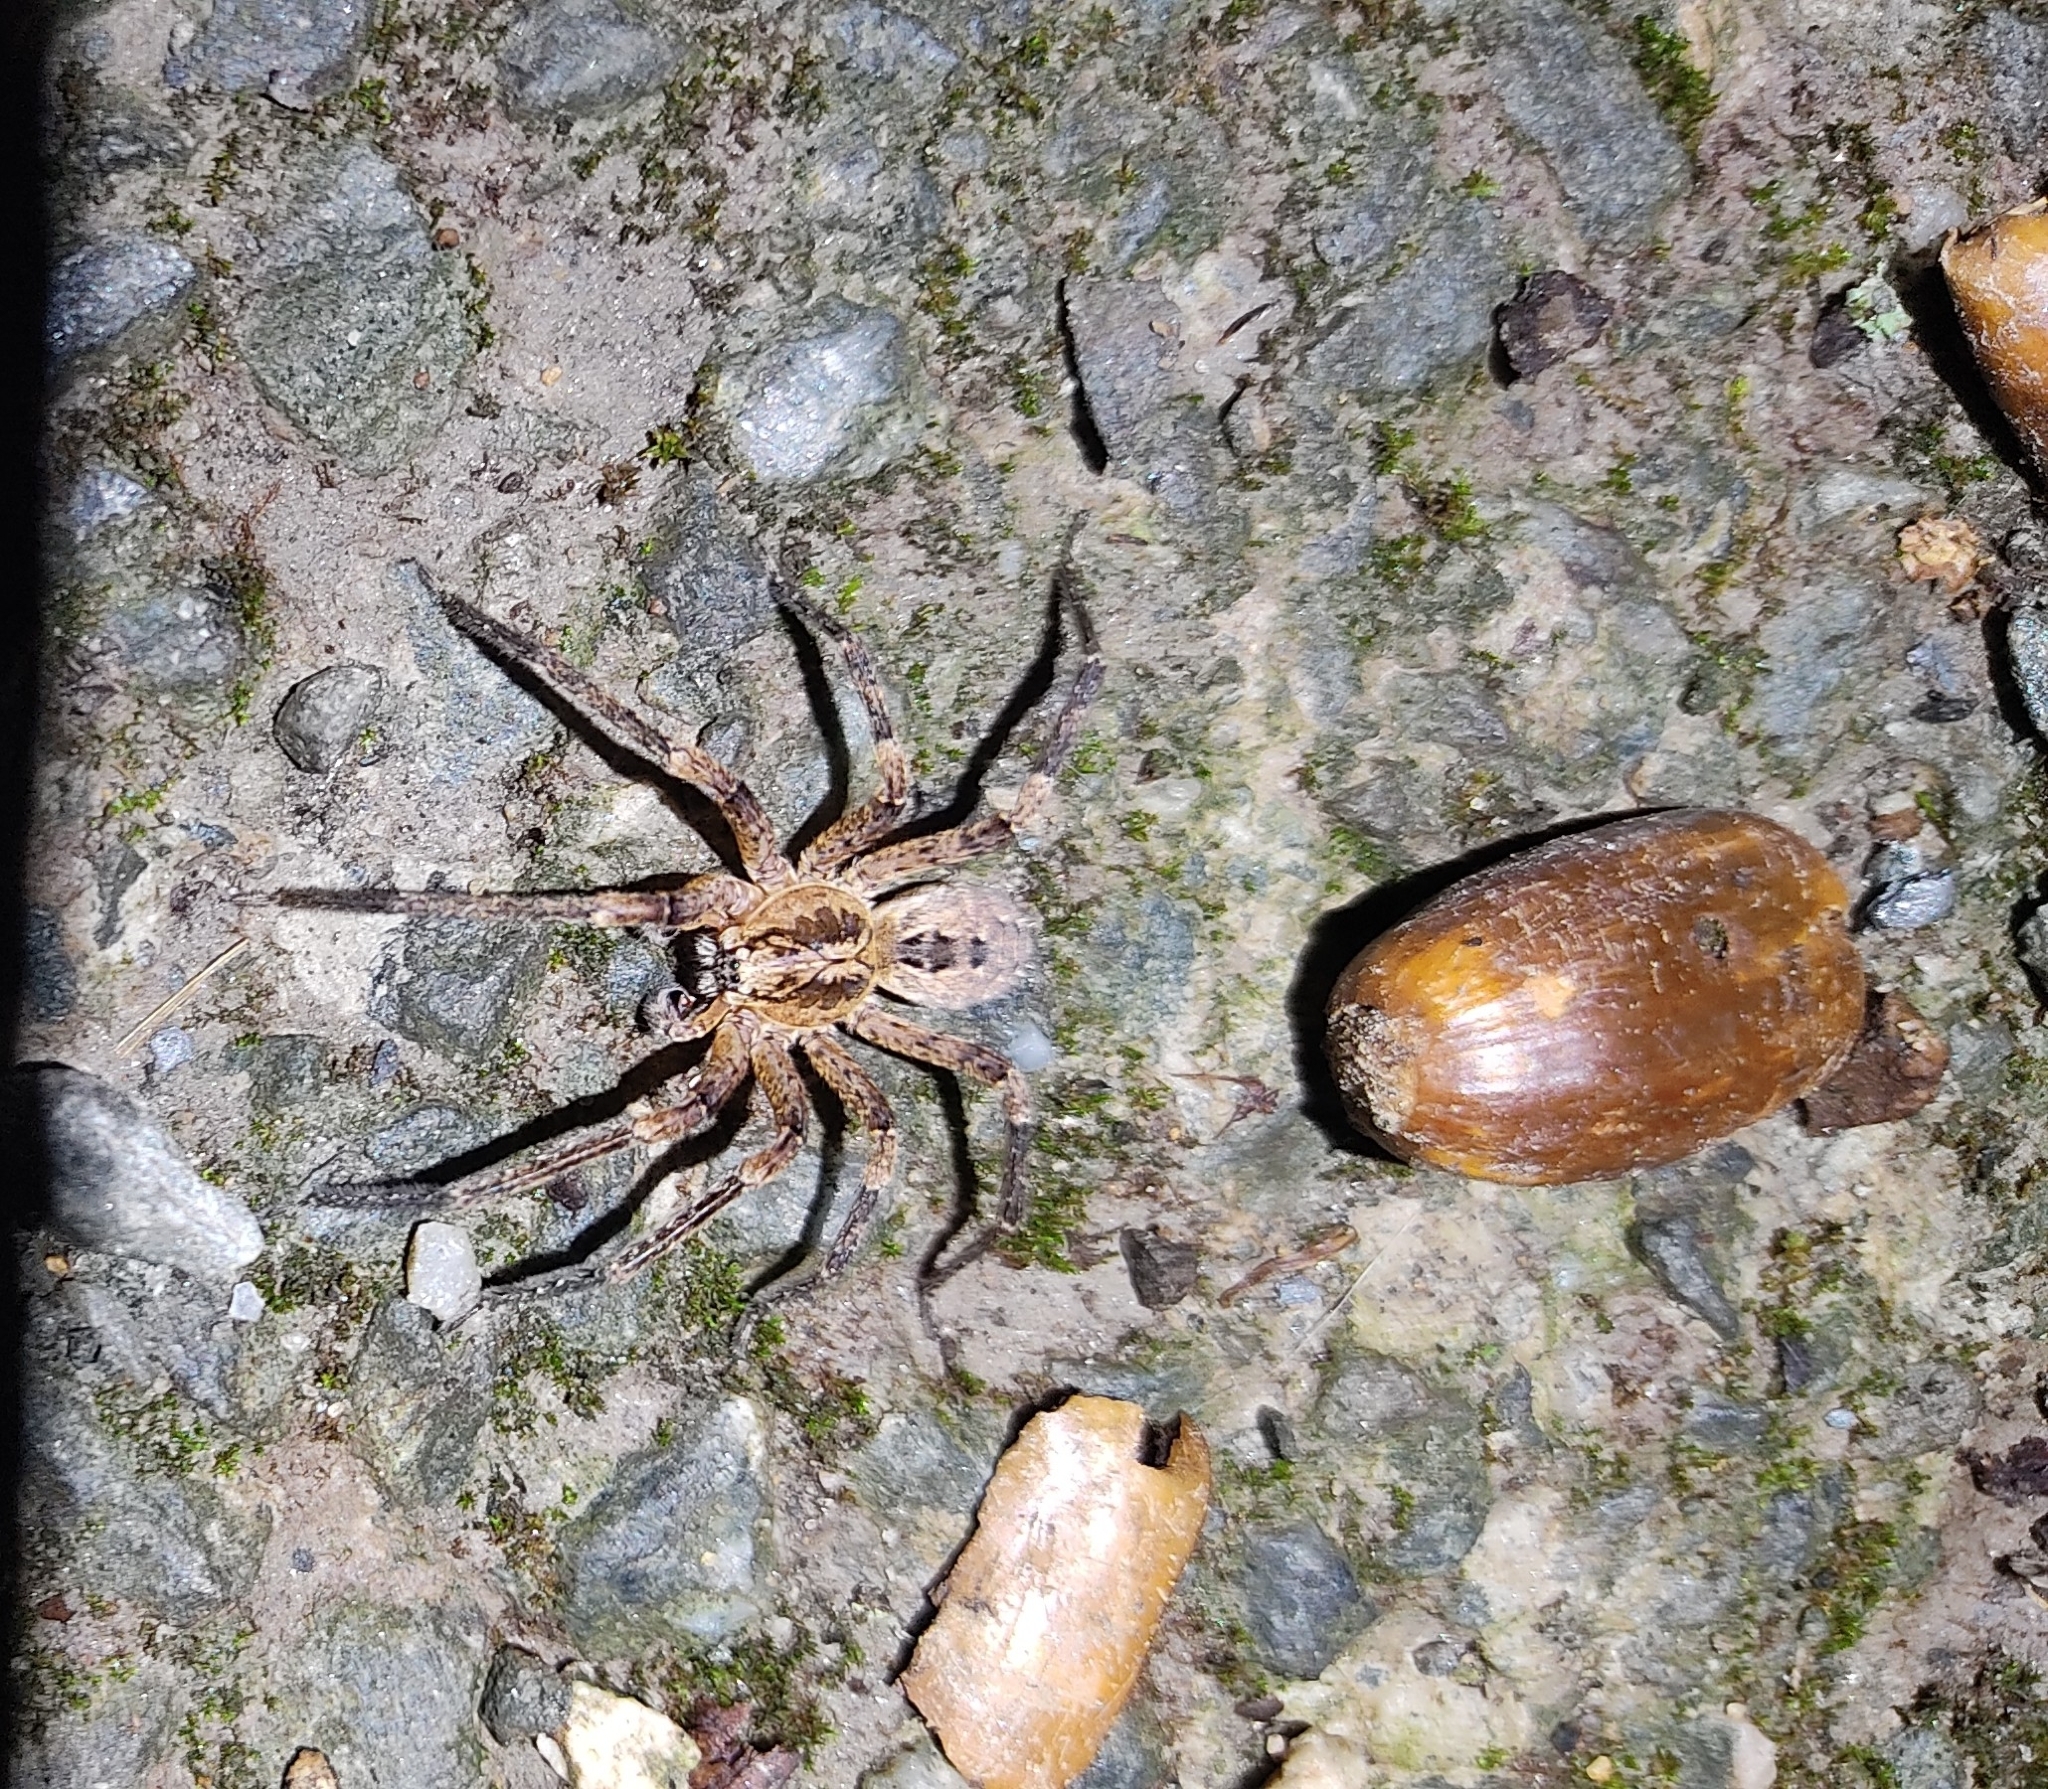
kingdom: Animalia
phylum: Arthropoda
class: Arachnida
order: Araneae
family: Zoropsidae
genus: Zoropsis
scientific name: Zoropsis spinimana
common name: Zoropsid spider
